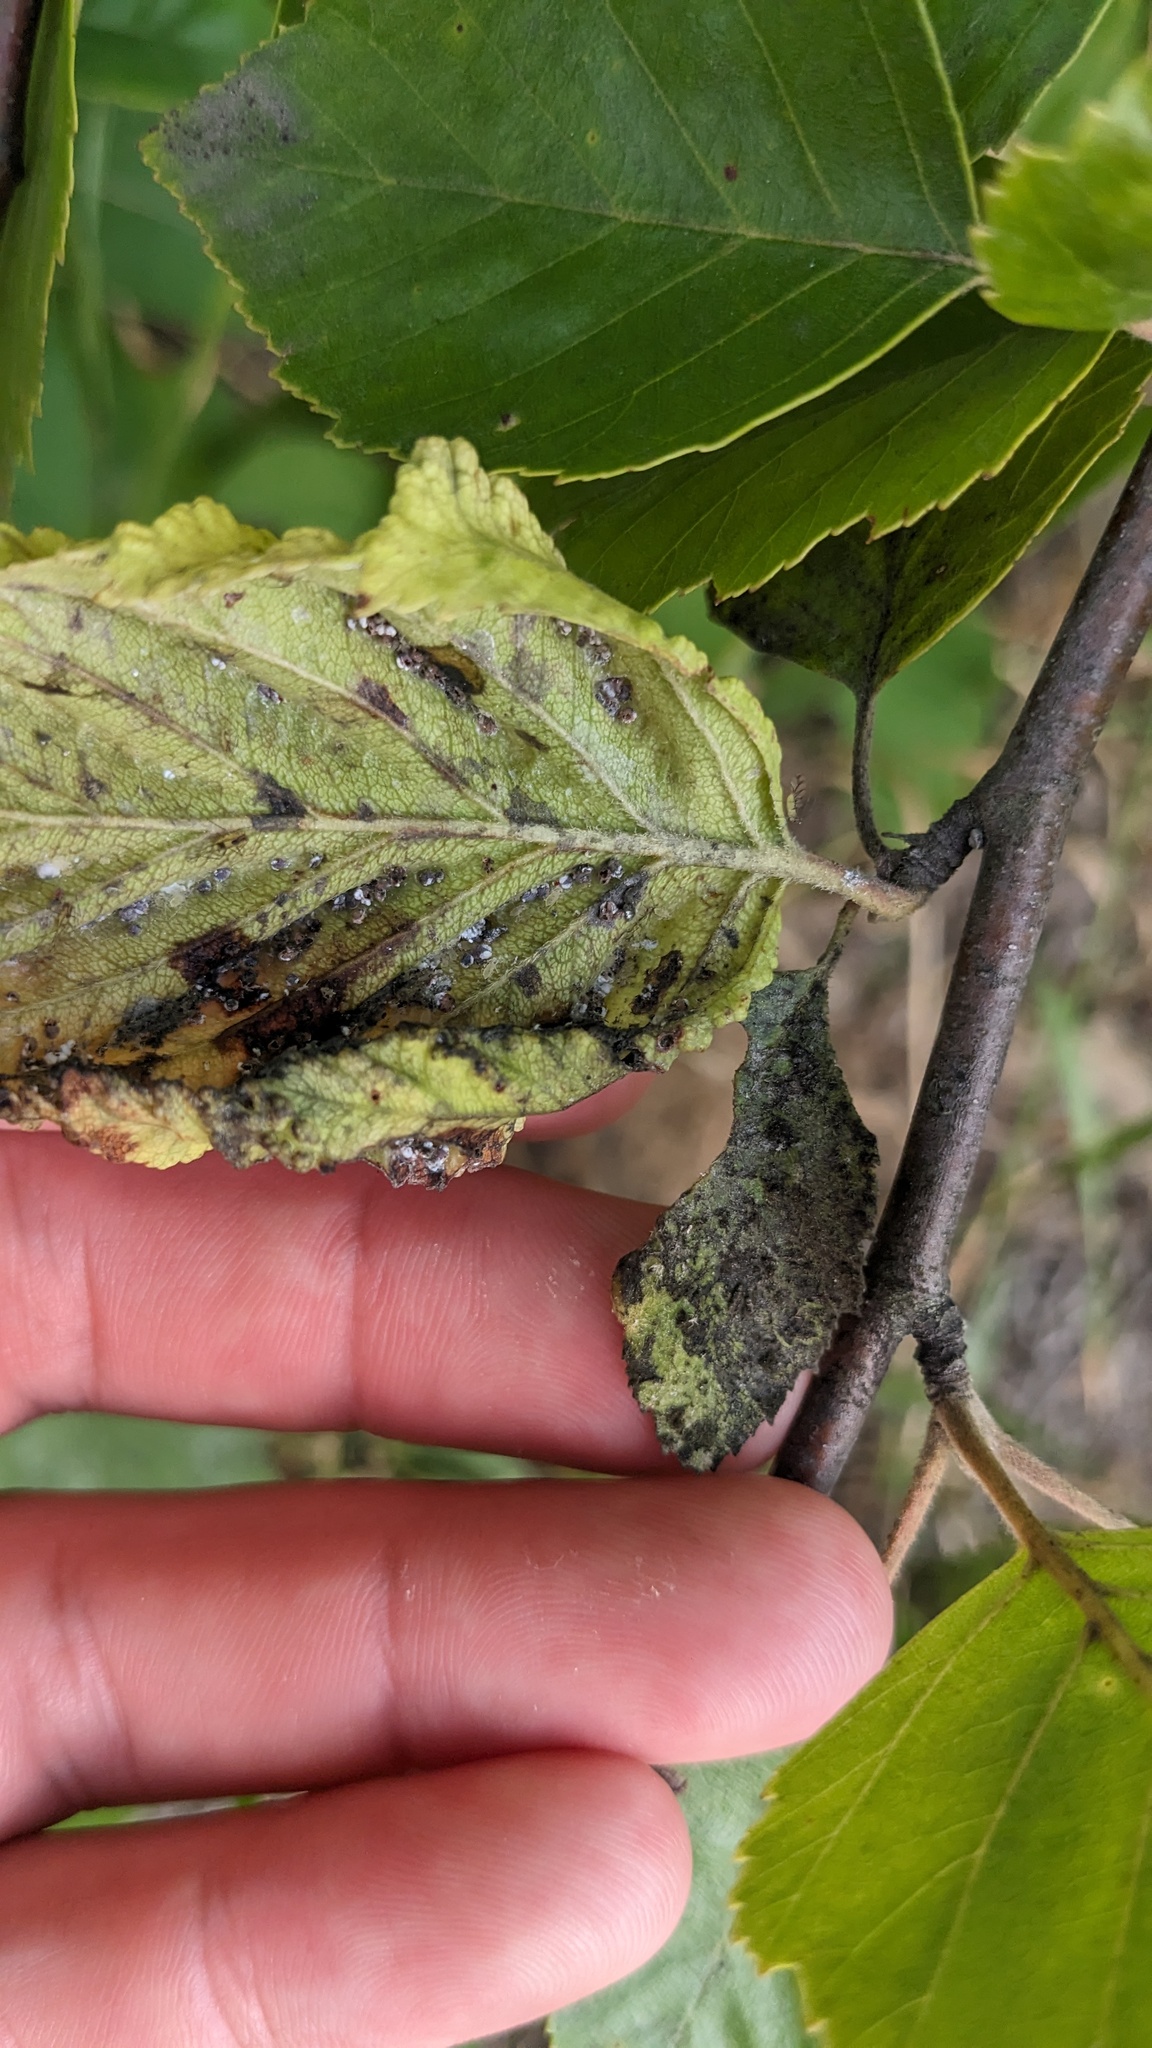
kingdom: Animalia
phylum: Arthropoda
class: Insecta
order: Hemiptera
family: Aphididae
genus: Hamamelistes
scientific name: Hamamelistes spinosus
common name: Witch hazel gall aphid
